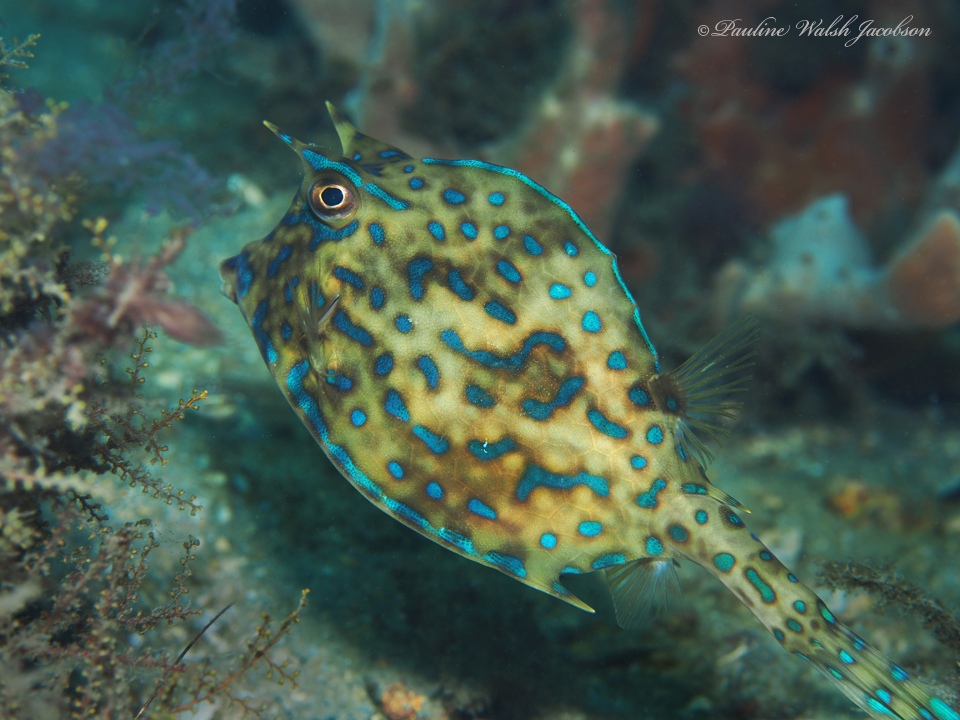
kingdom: Animalia
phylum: Chordata
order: Tetraodontiformes
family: Ostraciidae
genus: Acanthostracion
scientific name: Acanthostracion quadricornis
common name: Scrawled cowfish
